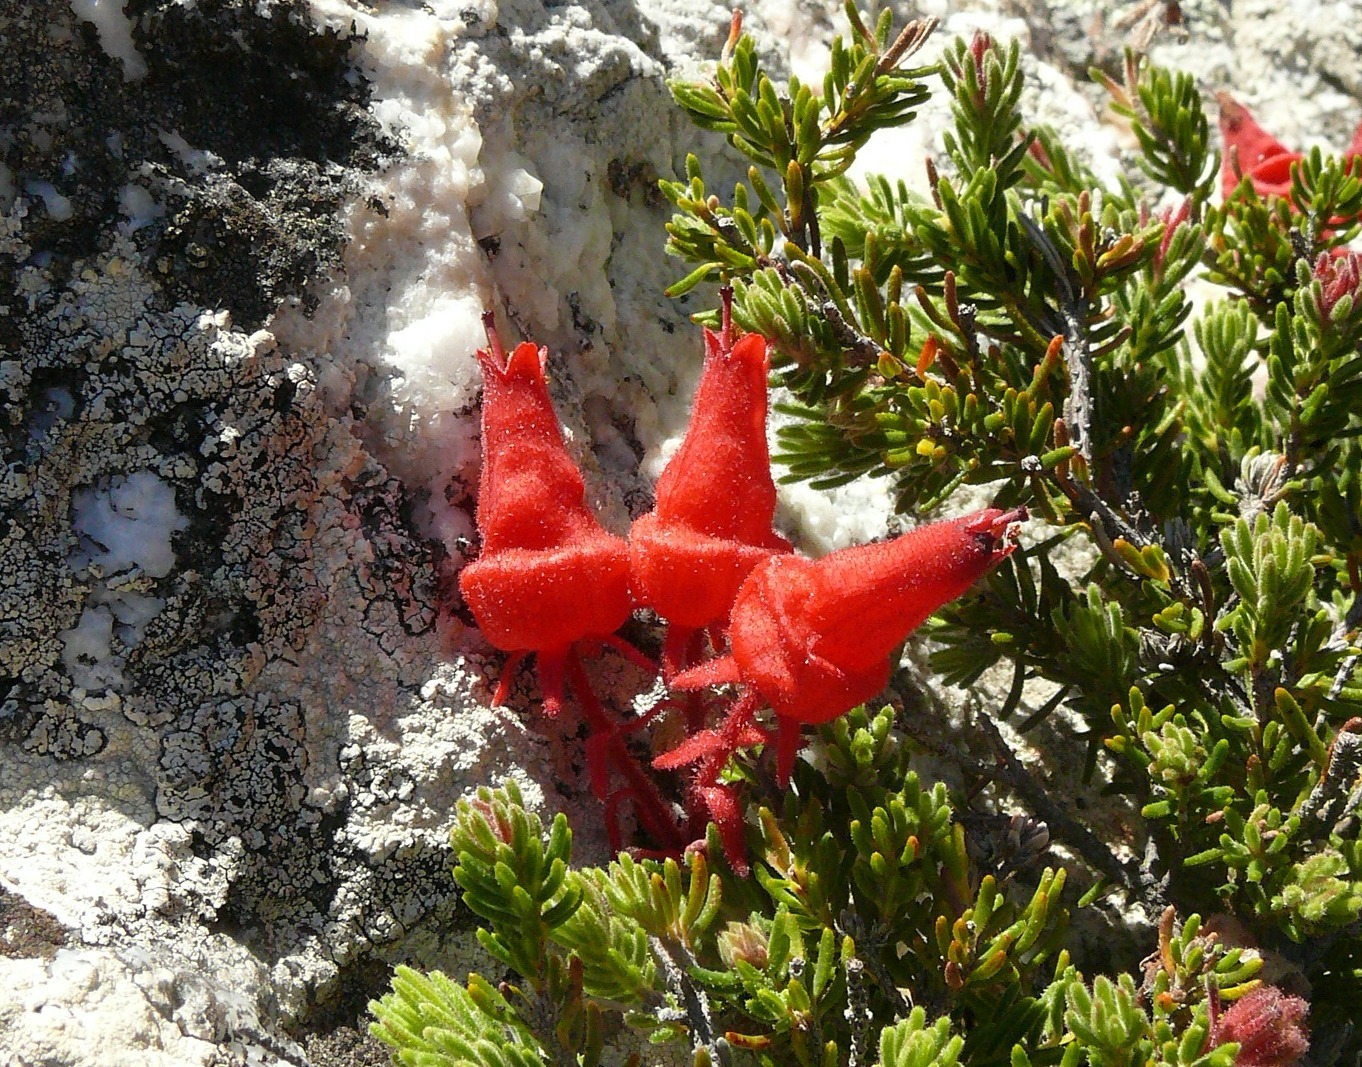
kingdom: Plantae
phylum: Tracheophyta
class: Magnoliopsida
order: Ericales
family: Ericaceae
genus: Erica
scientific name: Erica cameronii
